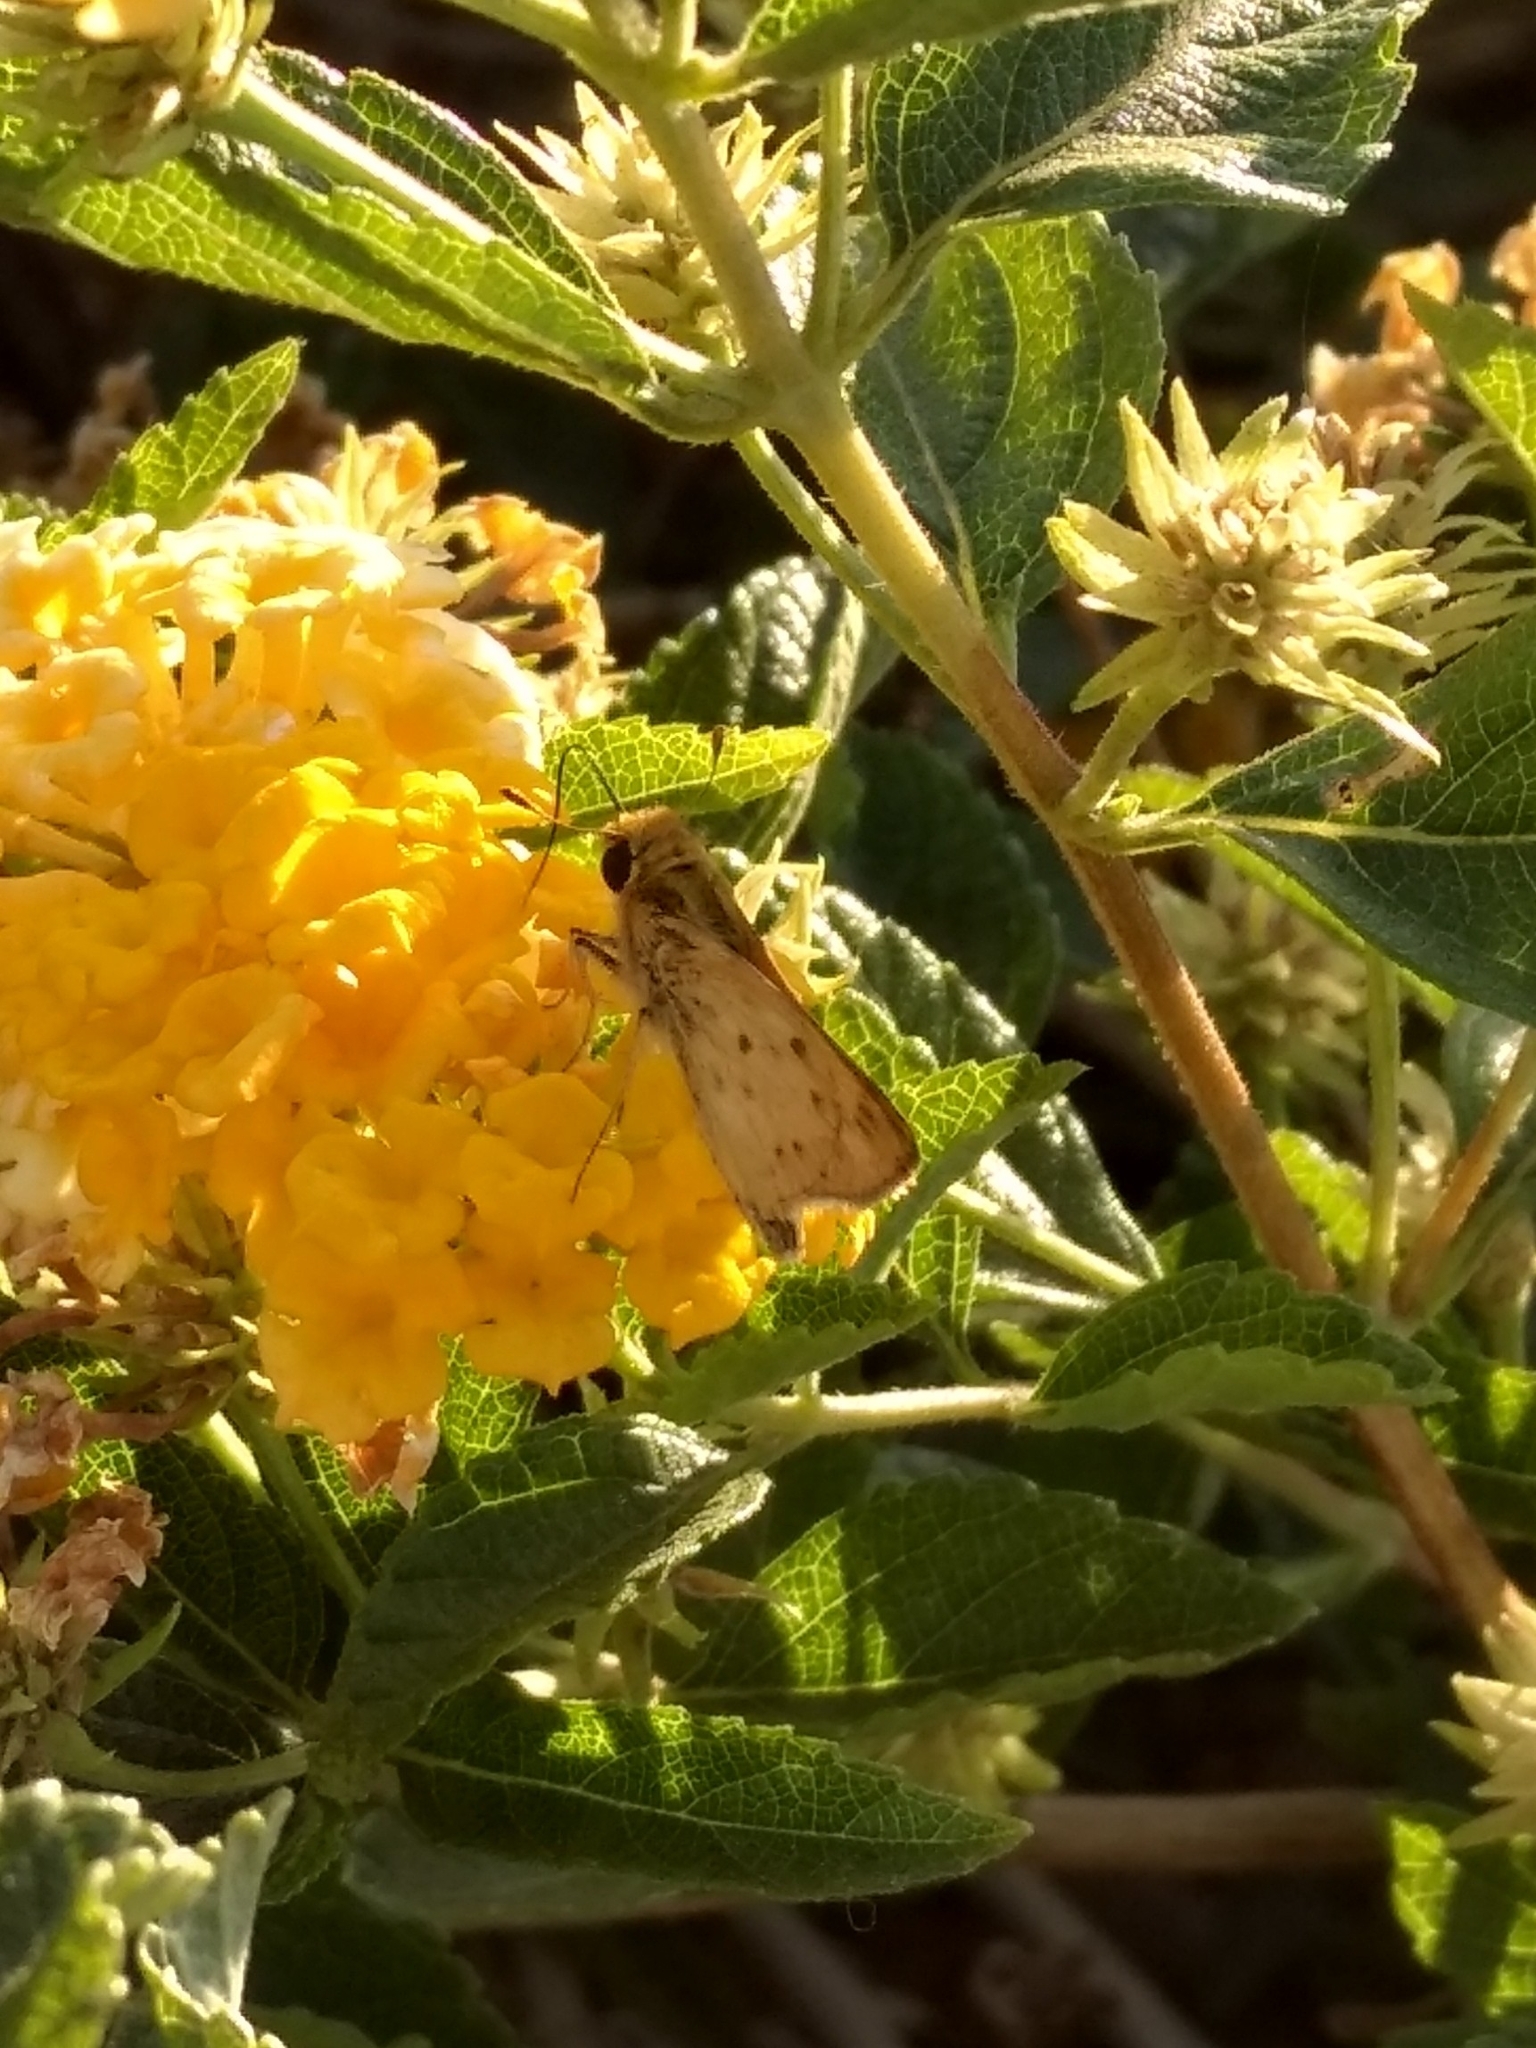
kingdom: Animalia
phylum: Arthropoda
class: Insecta
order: Lepidoptera
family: Hesperiidae
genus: Hylephila
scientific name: Hylephila phyleus
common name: Fiery skipper
